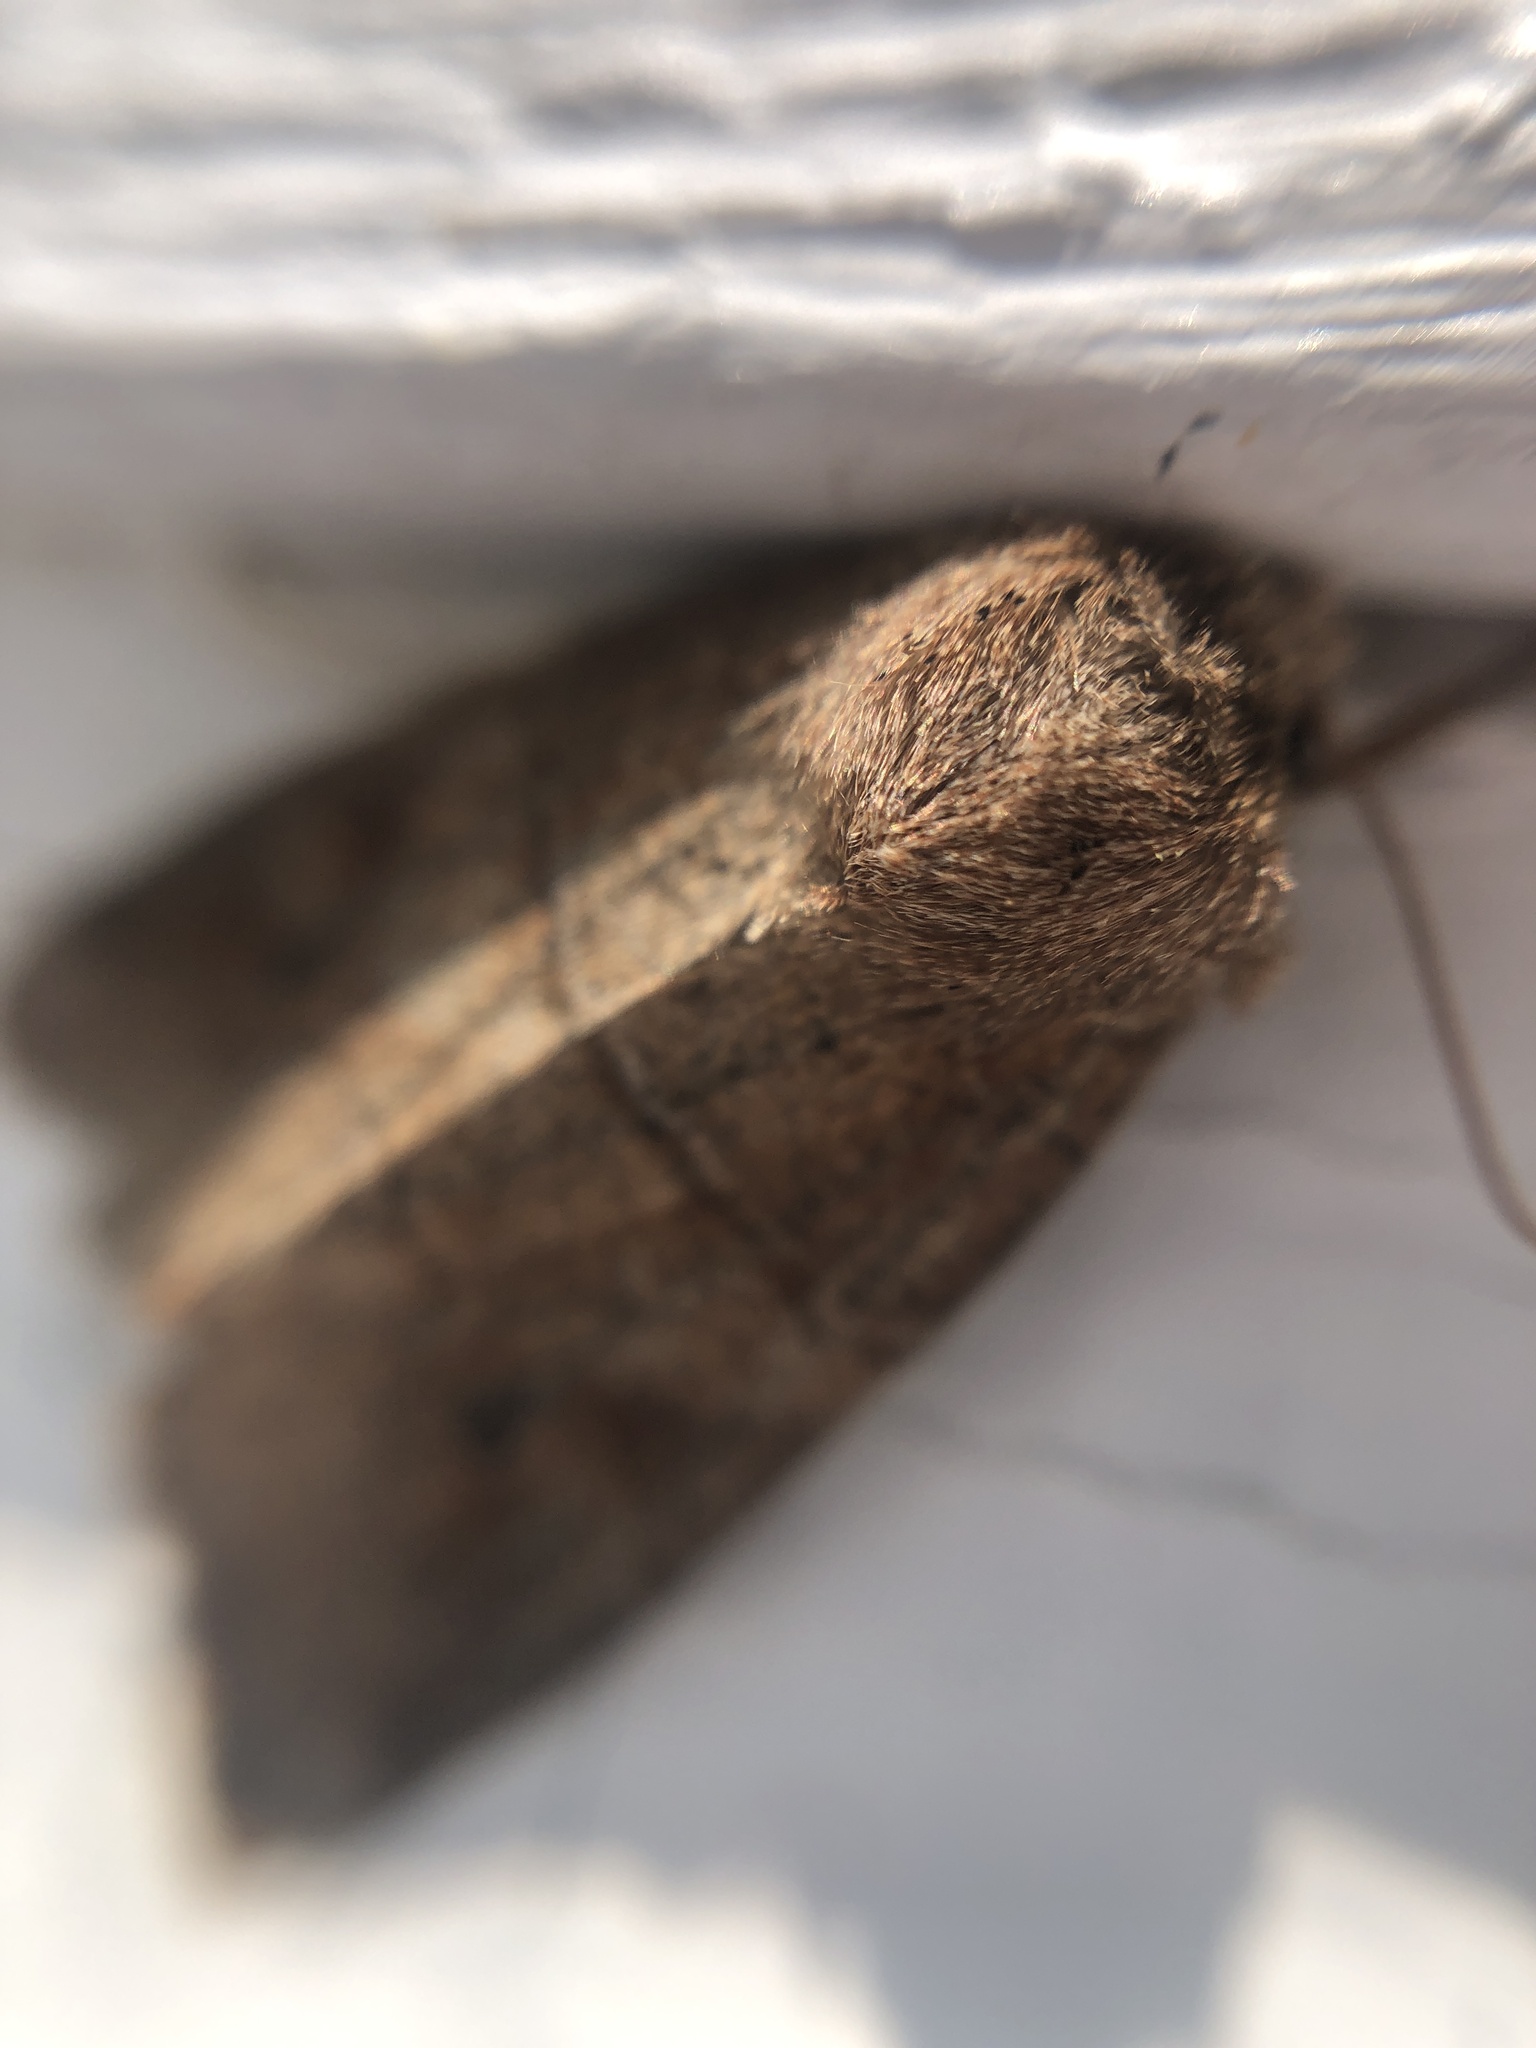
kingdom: Animalia
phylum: Arthropoda
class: Insecta
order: Lepidoptera
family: Noctuidae
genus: Crocigrapha
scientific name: Crocigrapha normani
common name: Norman's quaker
